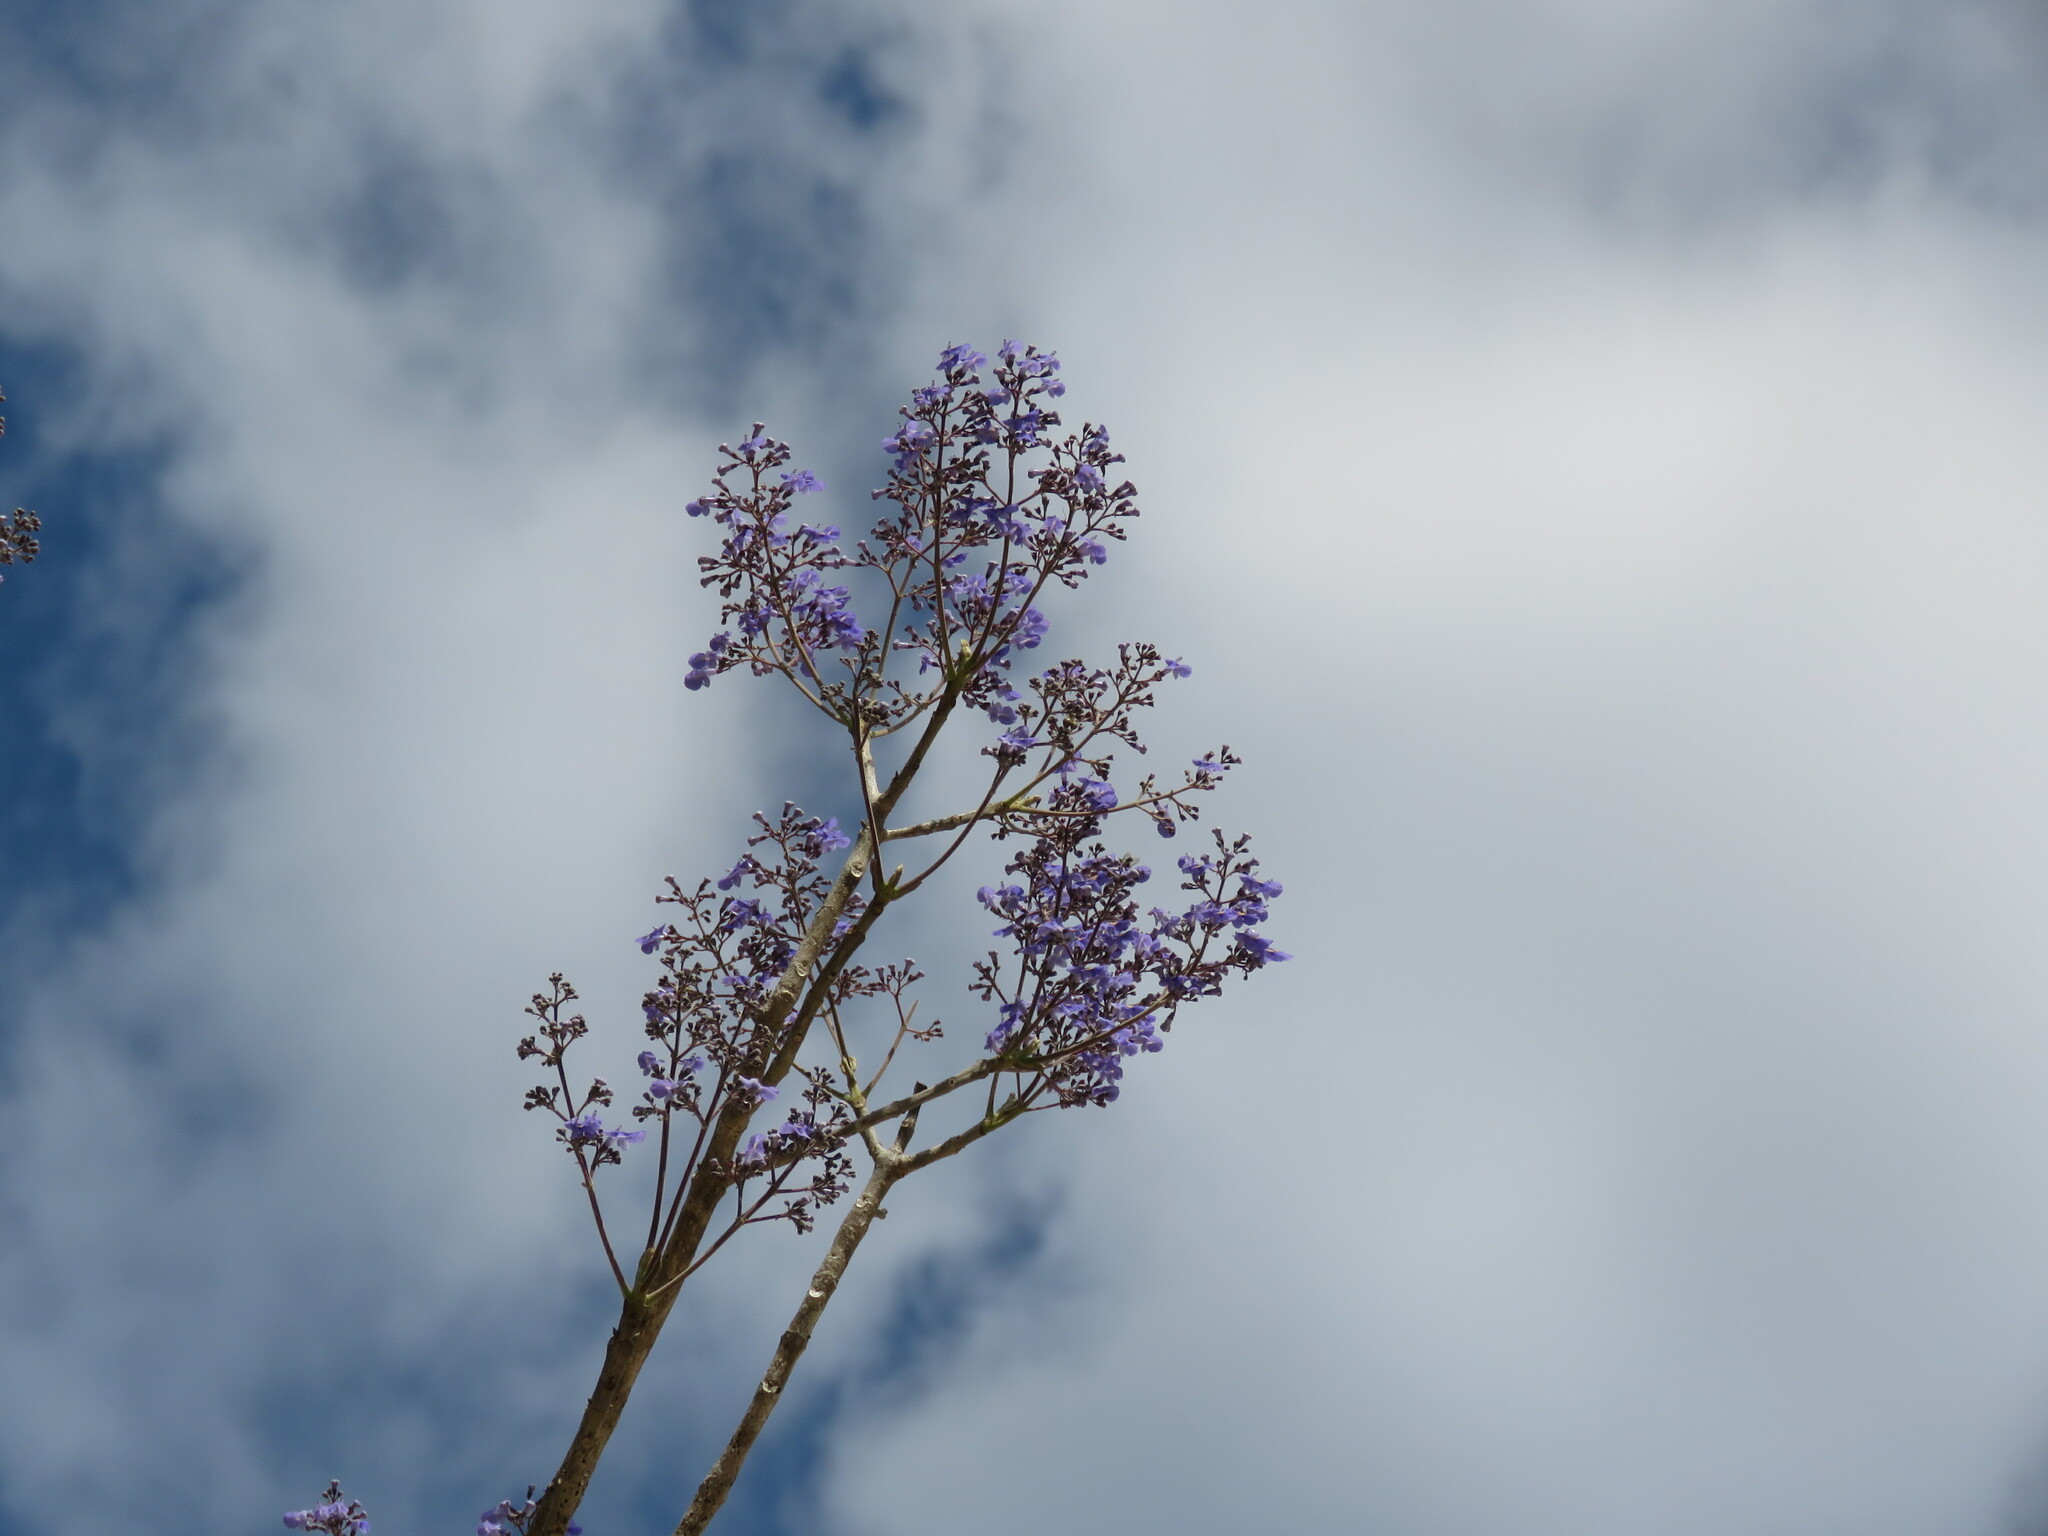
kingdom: Plantae
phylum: Tracheophyta
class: Magnoliopsida
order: Lamiales
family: Lamiaceae
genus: Vitex
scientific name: Vitex gaumeri
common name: Fiddlewood
